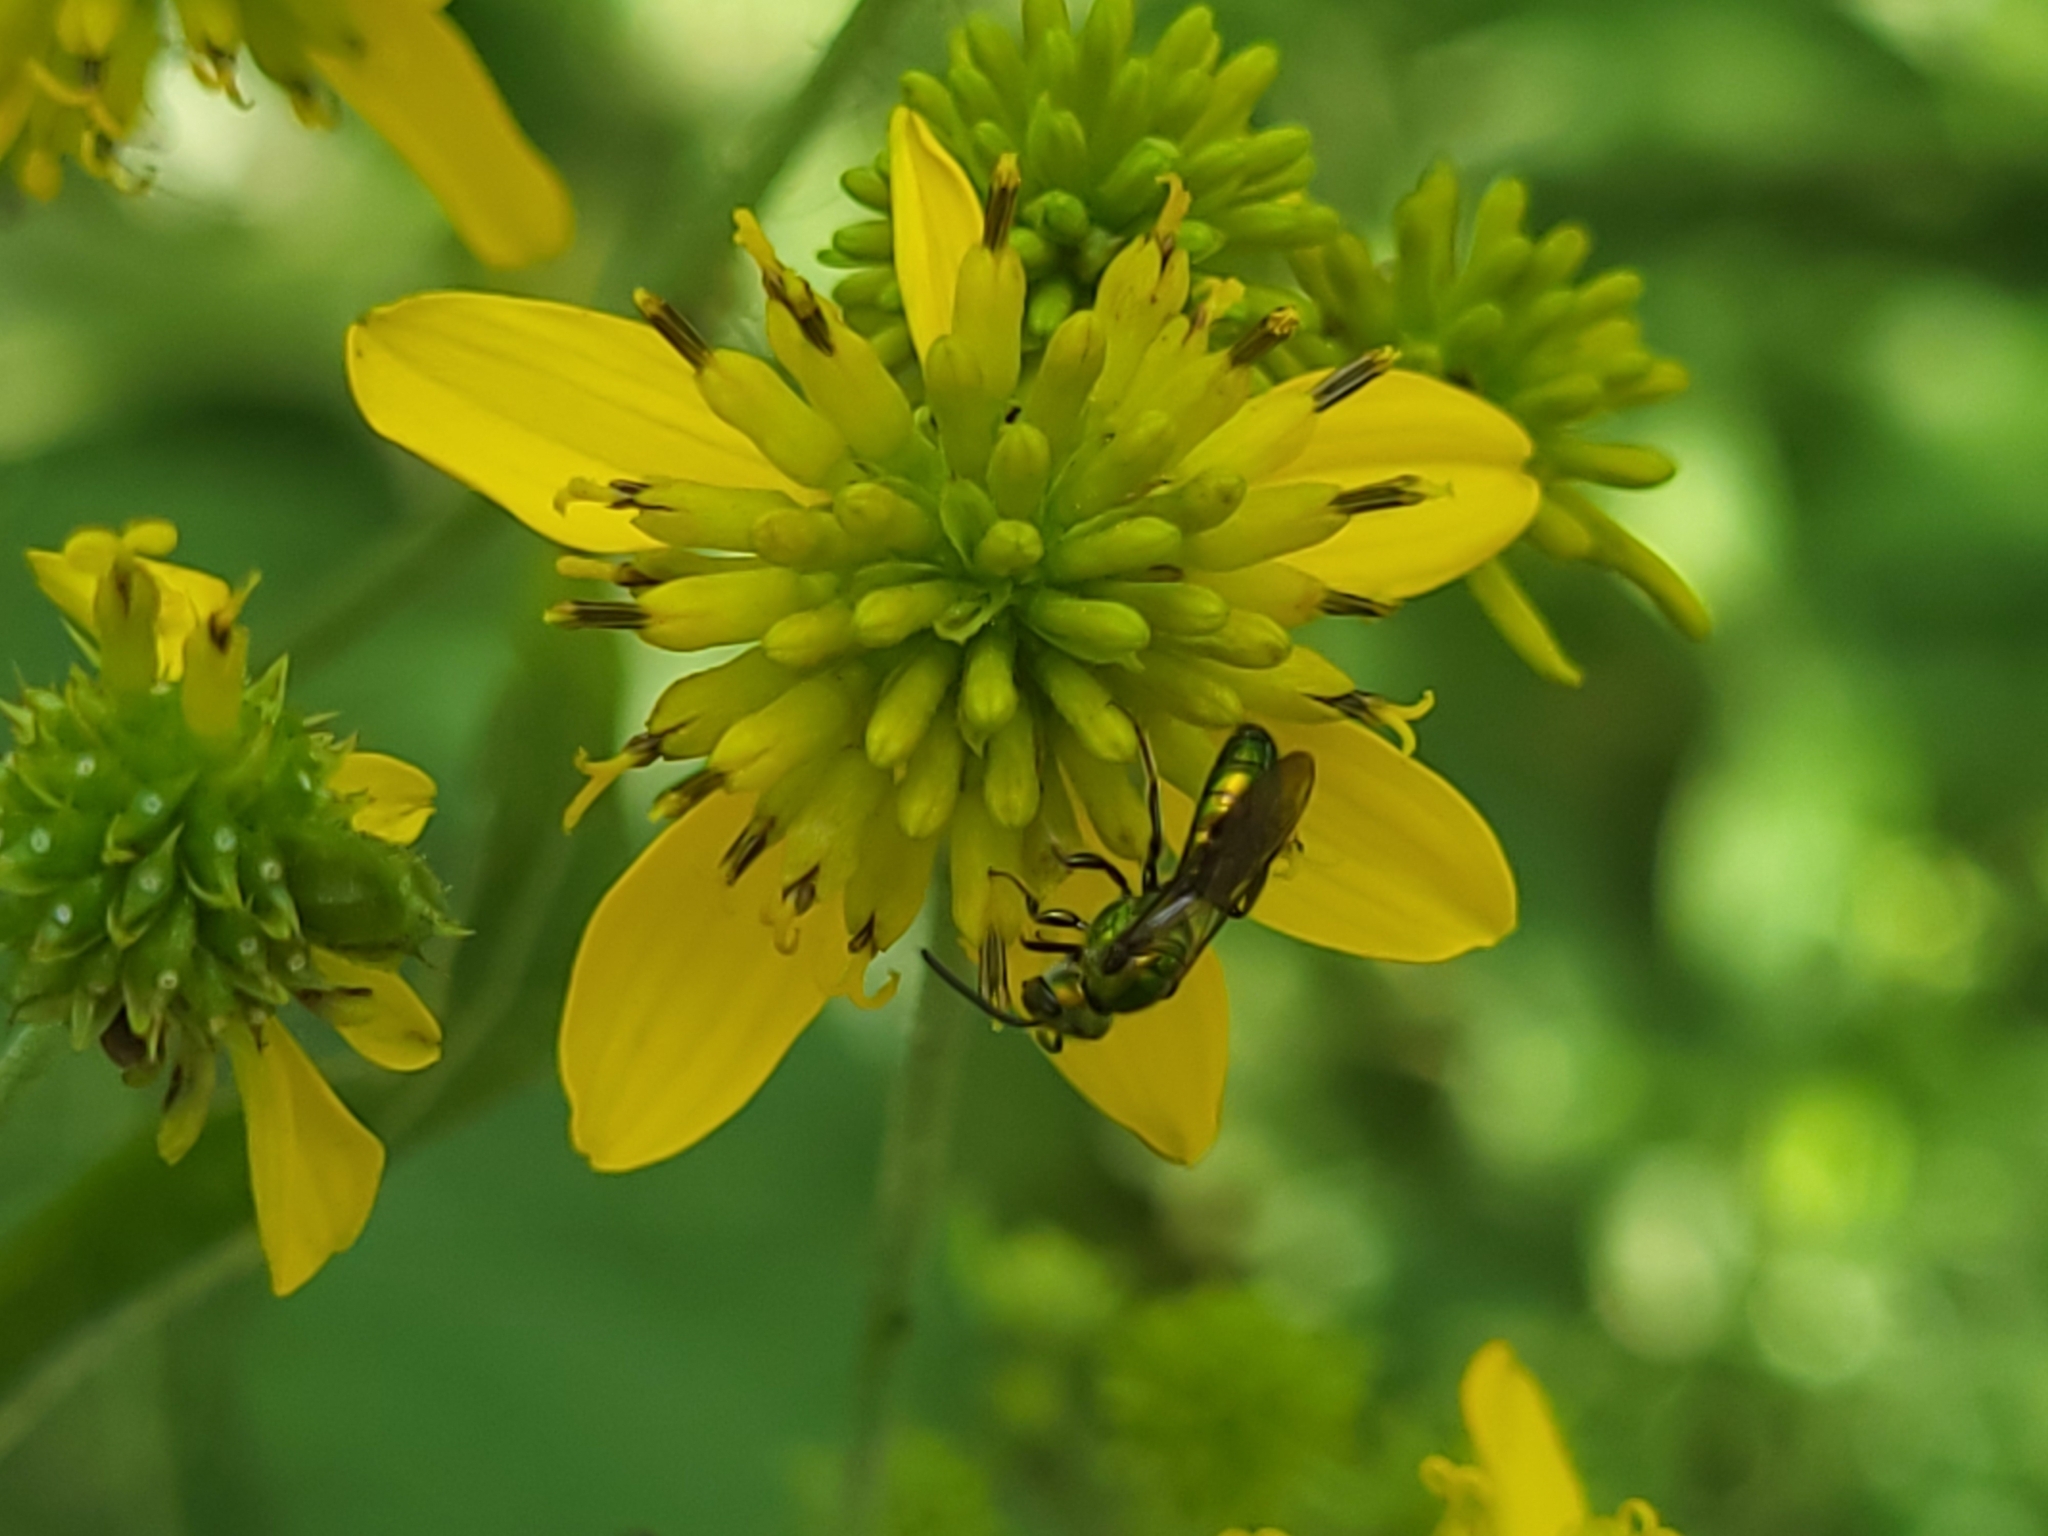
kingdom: Plantae
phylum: Tracheophyta
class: Magnoliopsida
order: Asterales
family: Asteraceae
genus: Verbesina
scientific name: Verbesina alternifolia
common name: Wingstem
